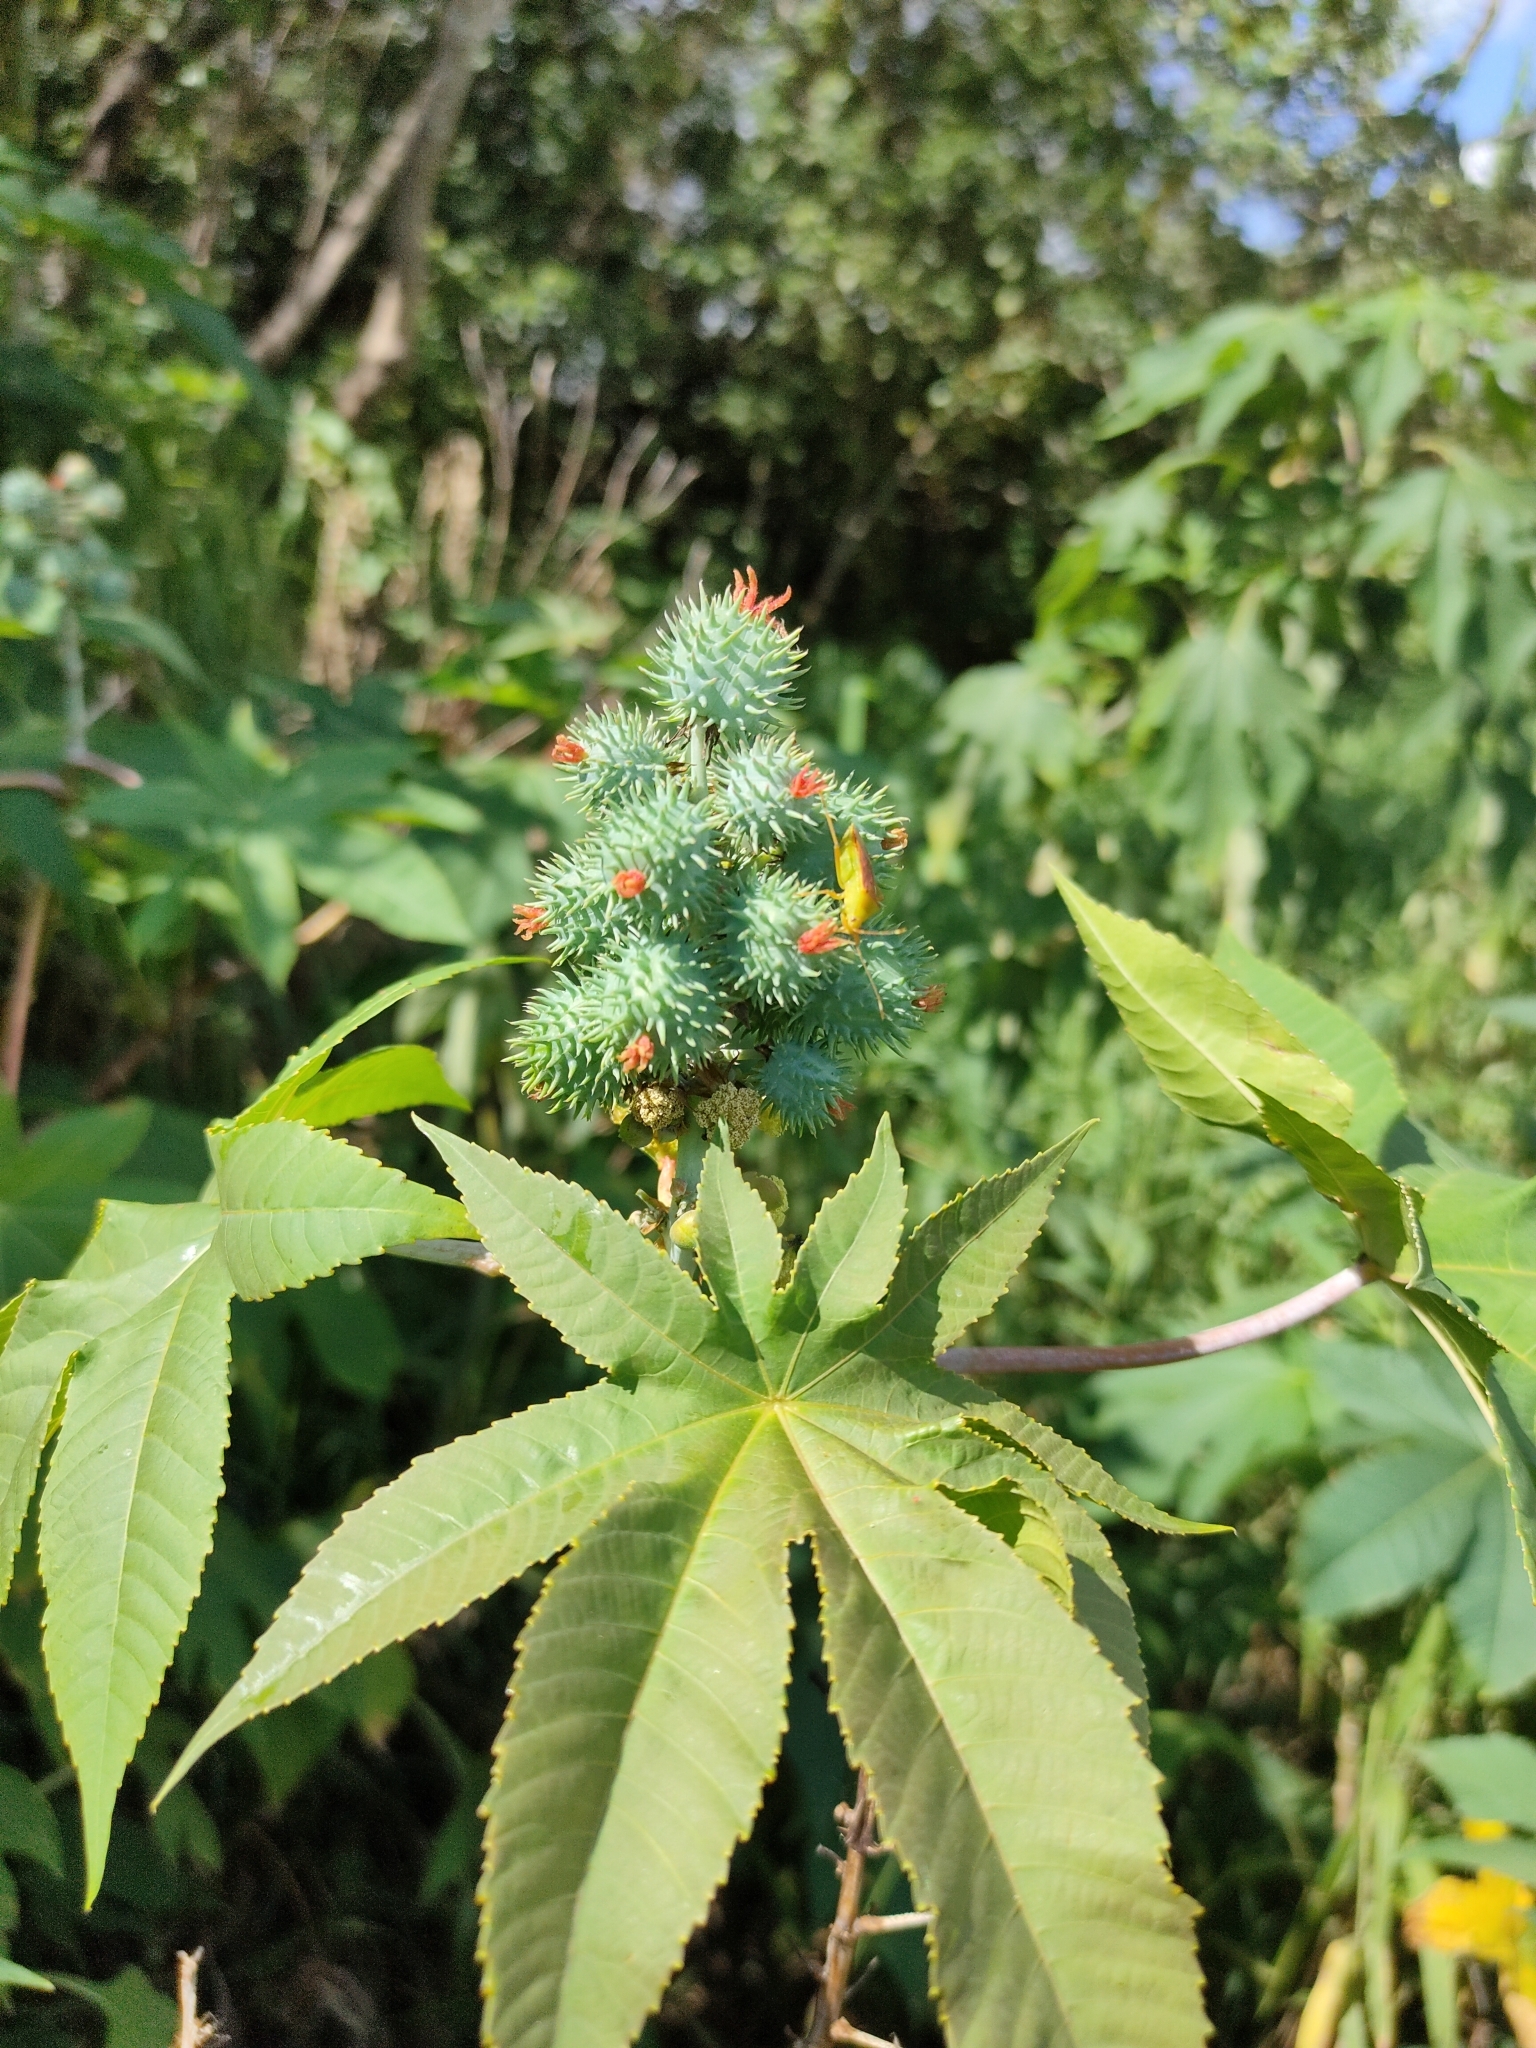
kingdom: Plantae
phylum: Tracheophyta
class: Magnoliopsida
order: Malpighiales
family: Euphorbiaceae
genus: Ricinus
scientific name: Ricinus communis
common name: Castor-oil-plant
